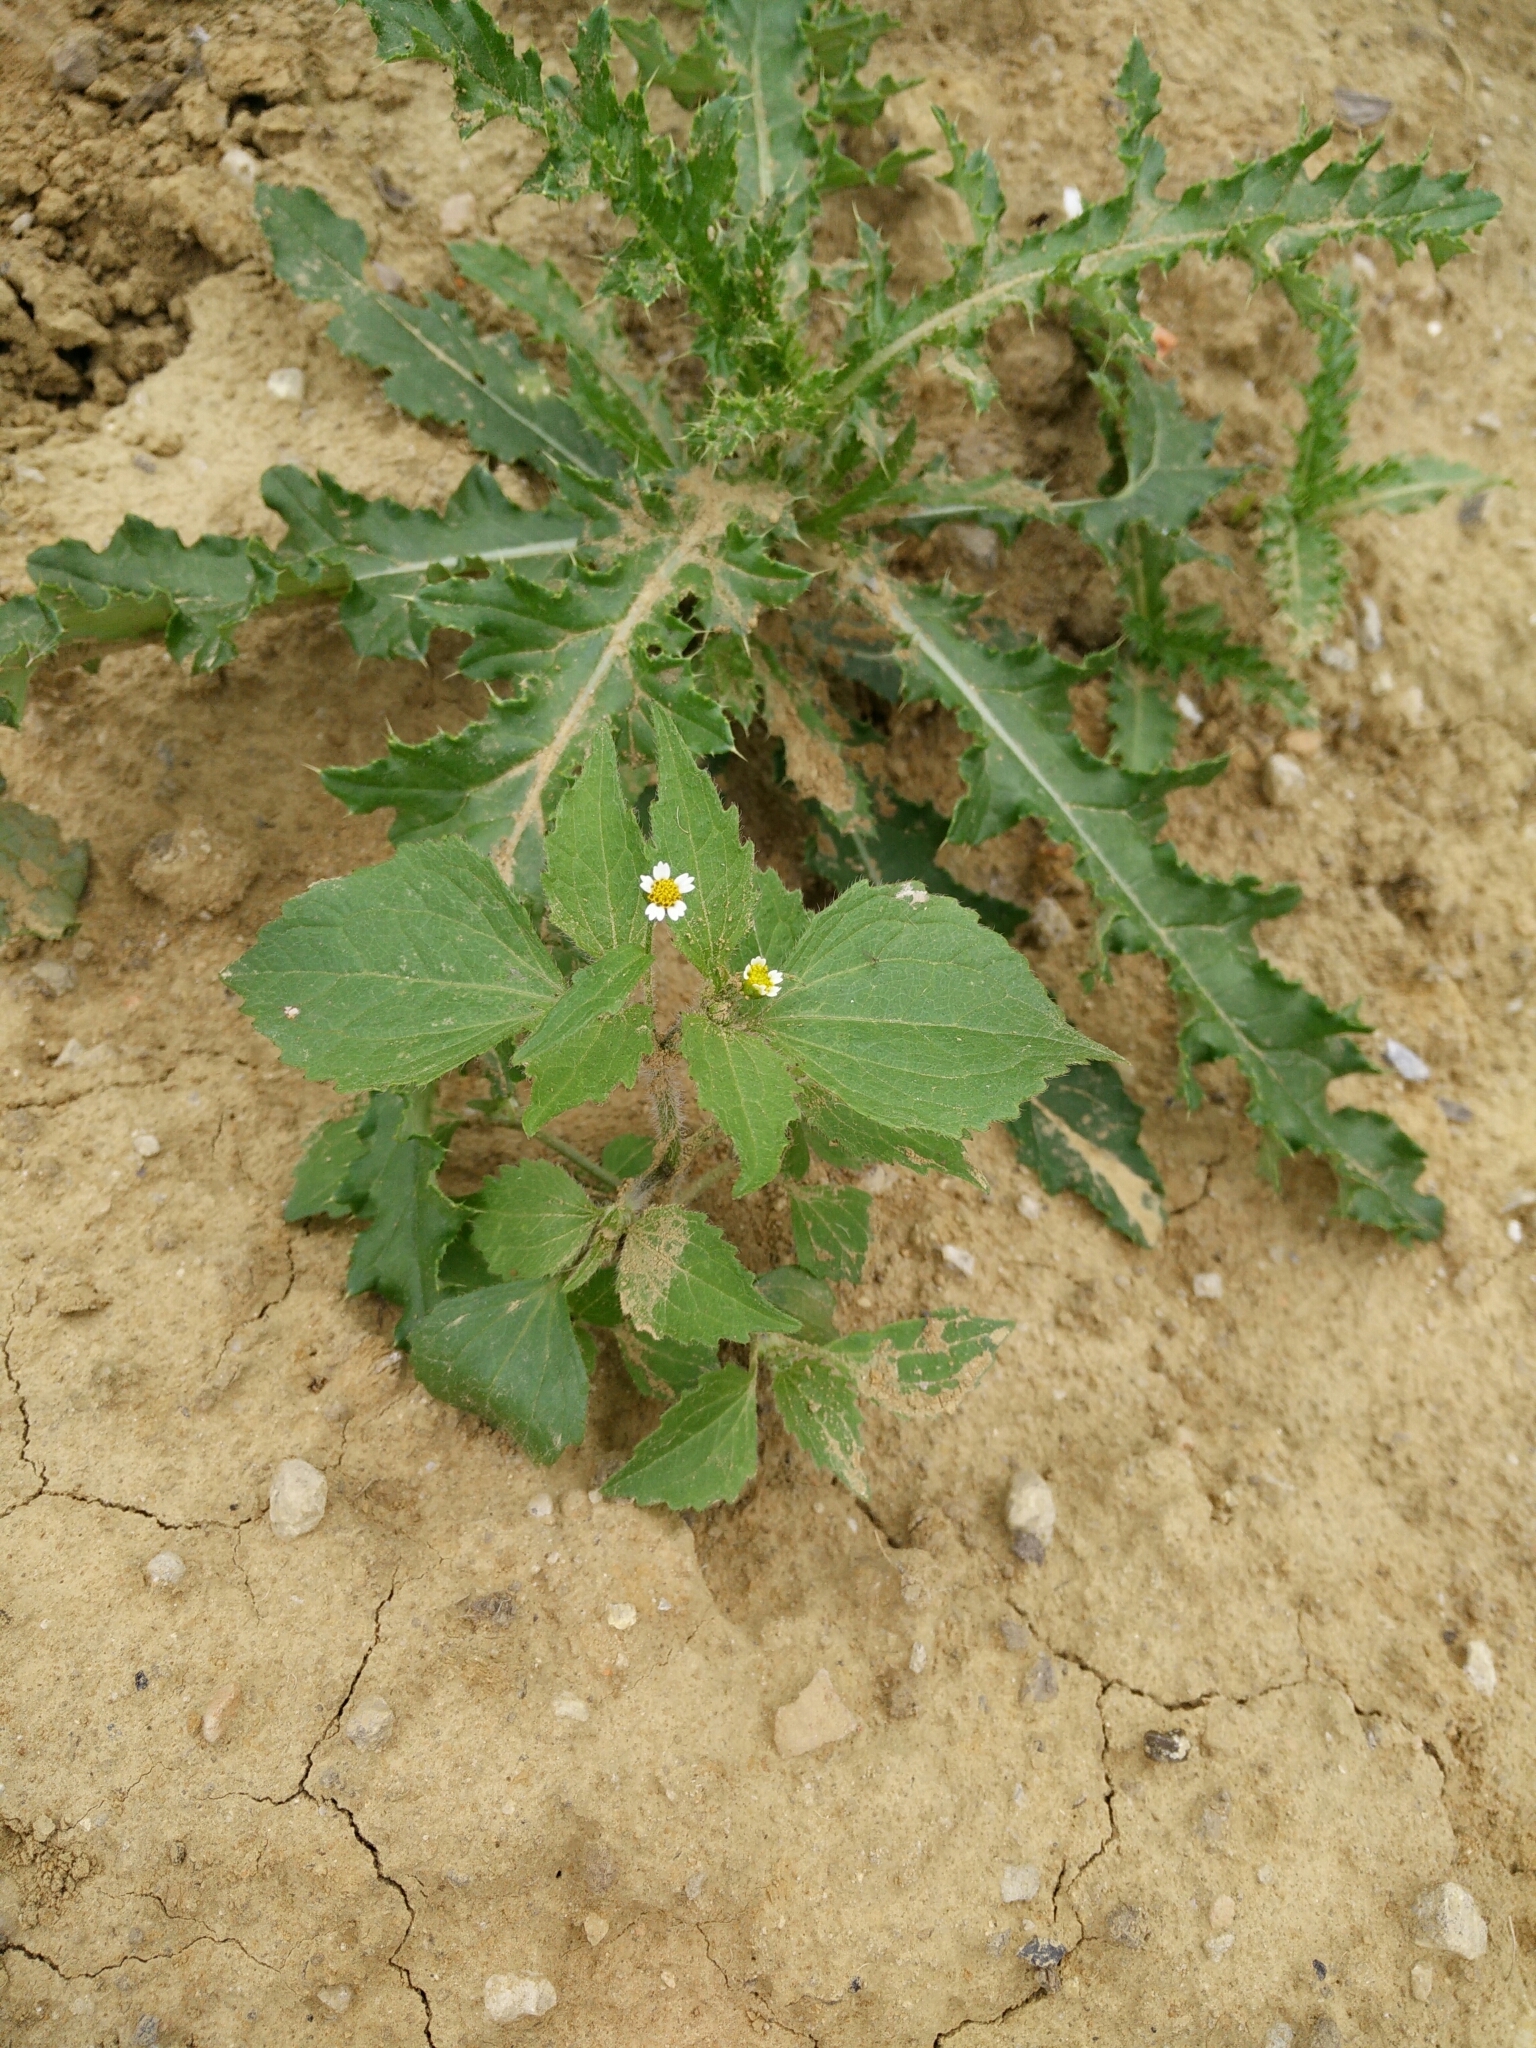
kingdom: Plantae
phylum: Tracheophyta
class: Magnoliopsida
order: Asterales
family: Asteraceae
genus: Galinsoga
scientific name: Galinsoga quadriradiata
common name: Shaggy soldier
